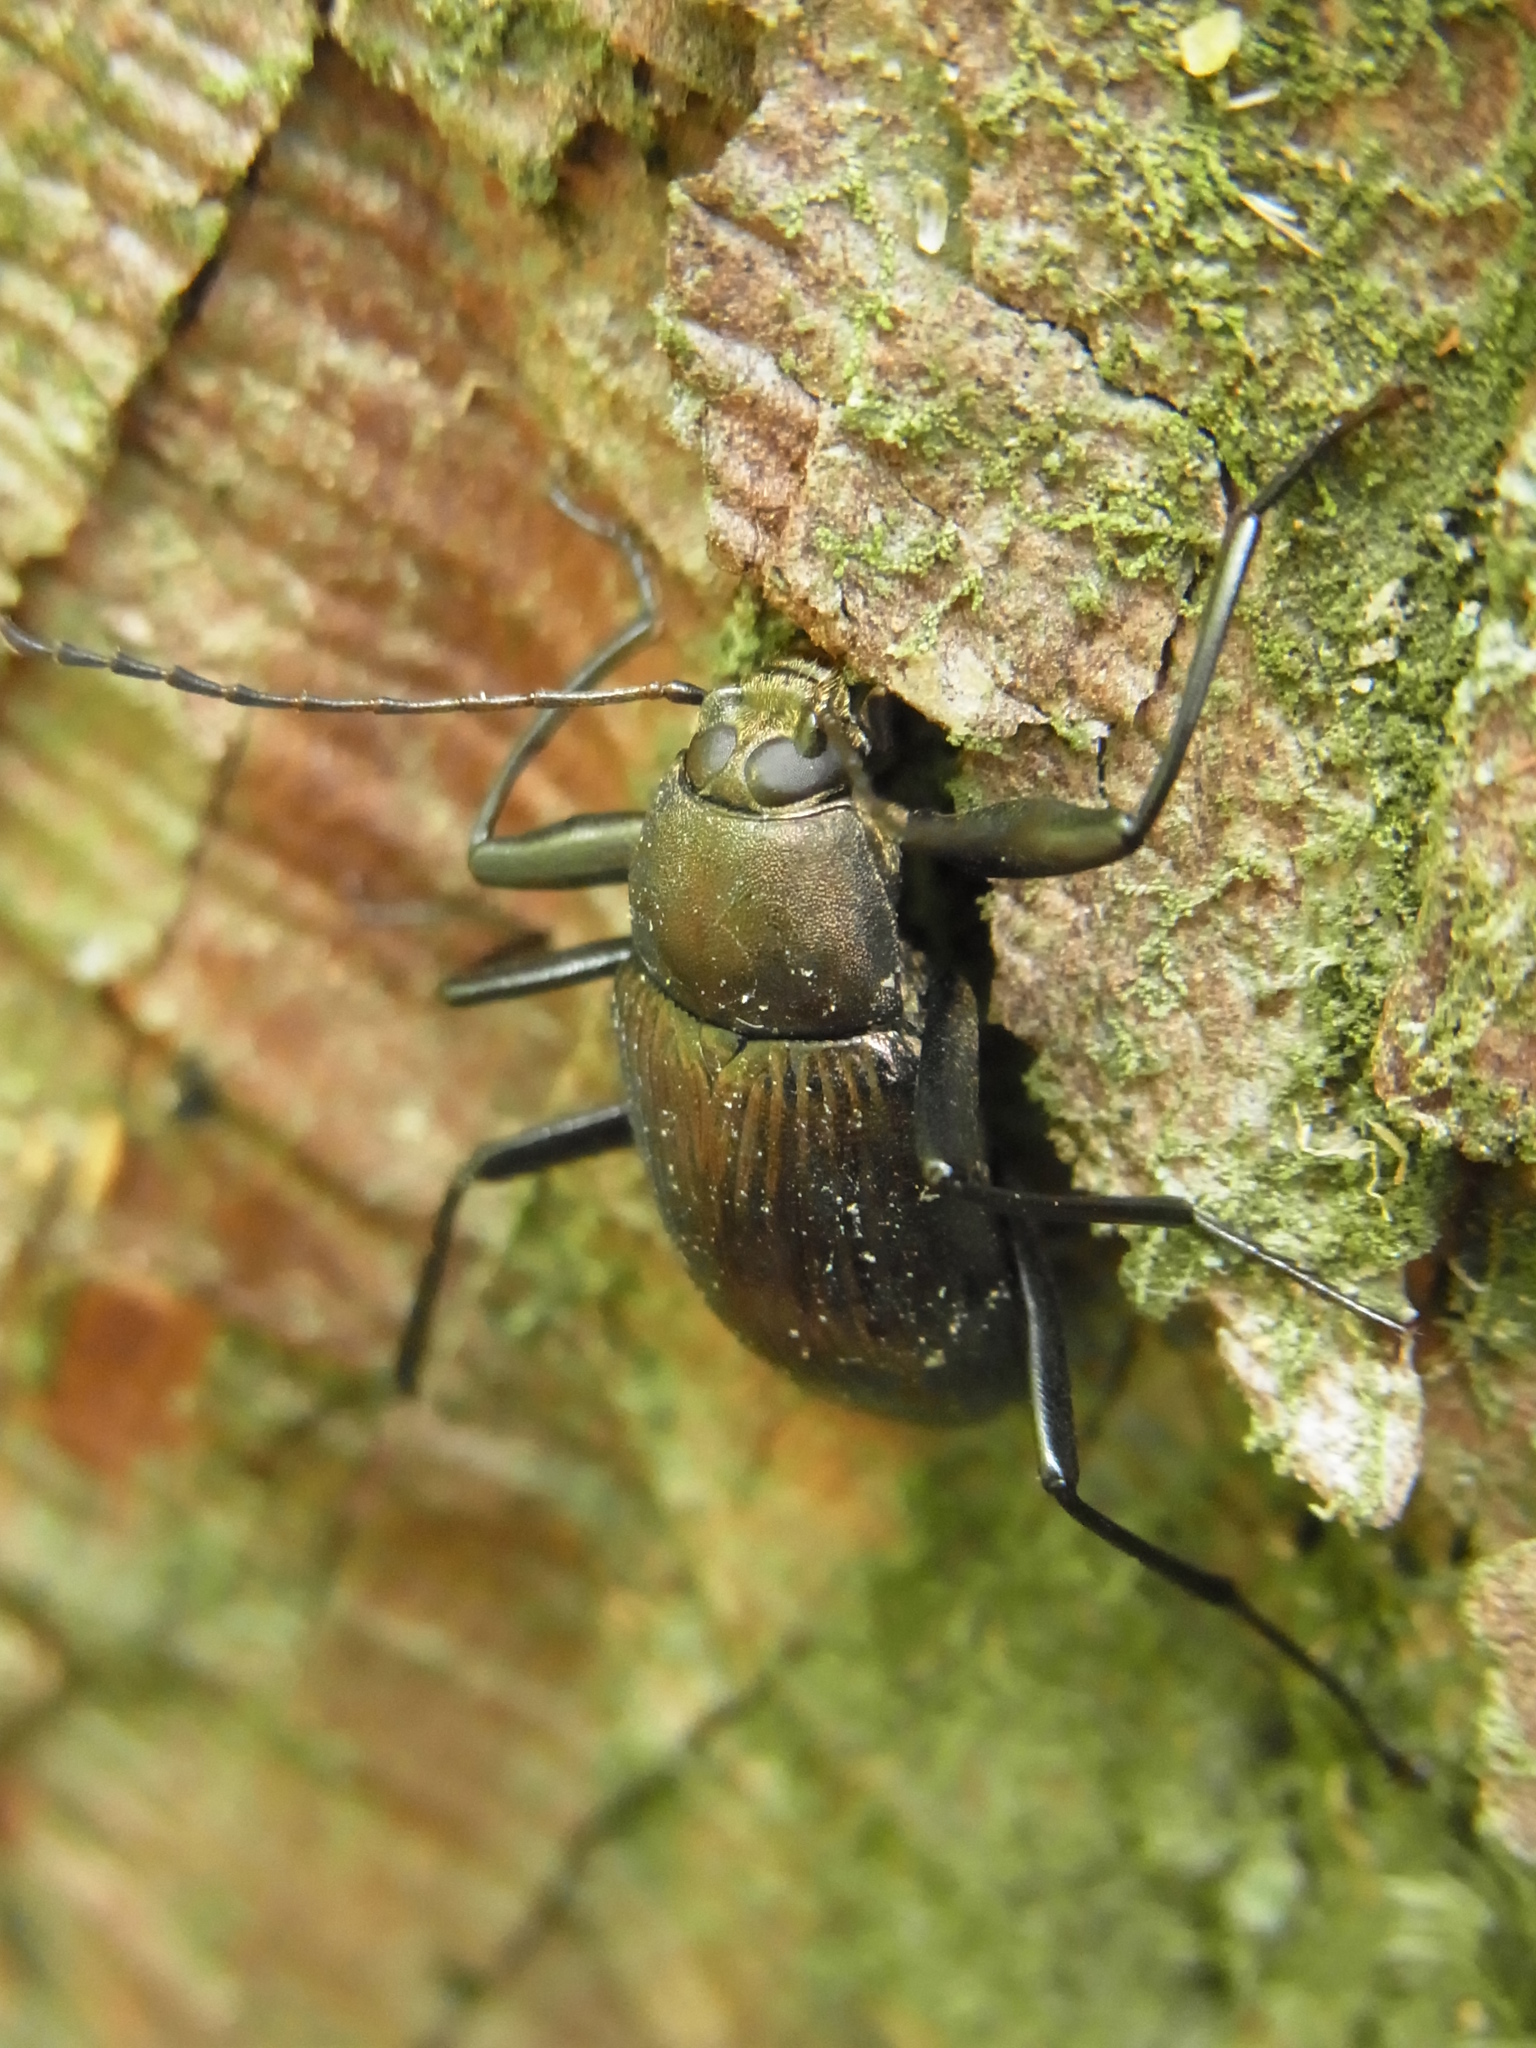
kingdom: Animalia
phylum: Arthropoda
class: Insecta
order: Coleoptera
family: Tenebrionidae
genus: Plesiophthalmus
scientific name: Plesiophthalmus
